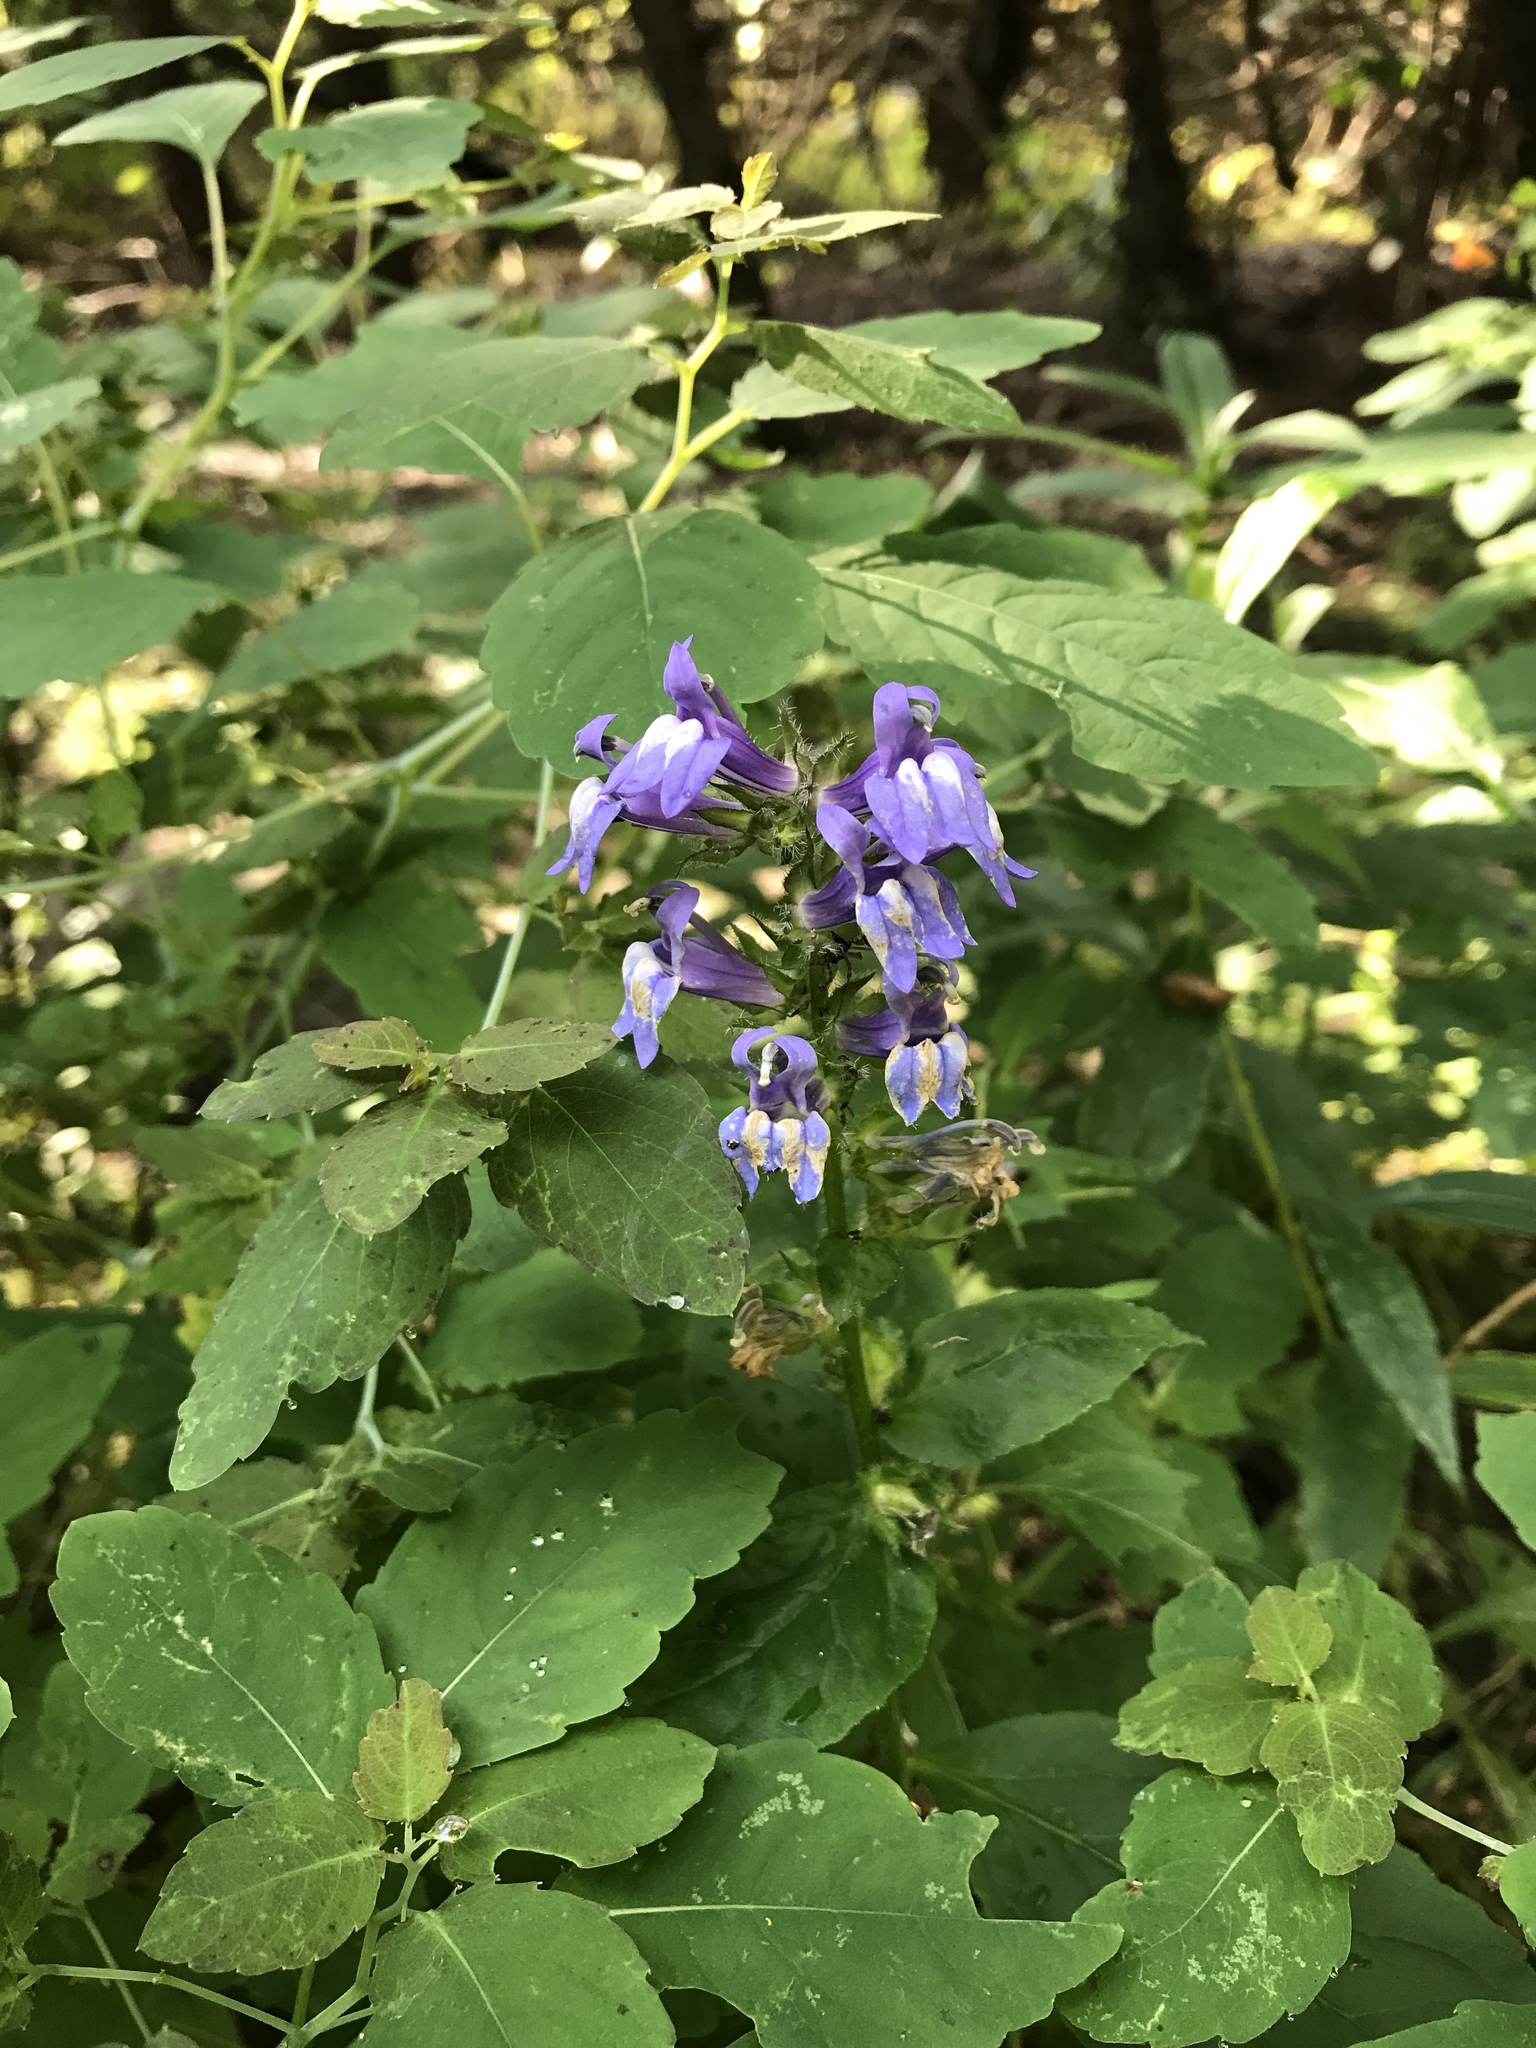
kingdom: Plantae
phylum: Tracheophyta
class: Magnoliopsida
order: Asterales
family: Campanulaceae
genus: Lobelia
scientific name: Lobelia siphilitica
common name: Great lobelia
